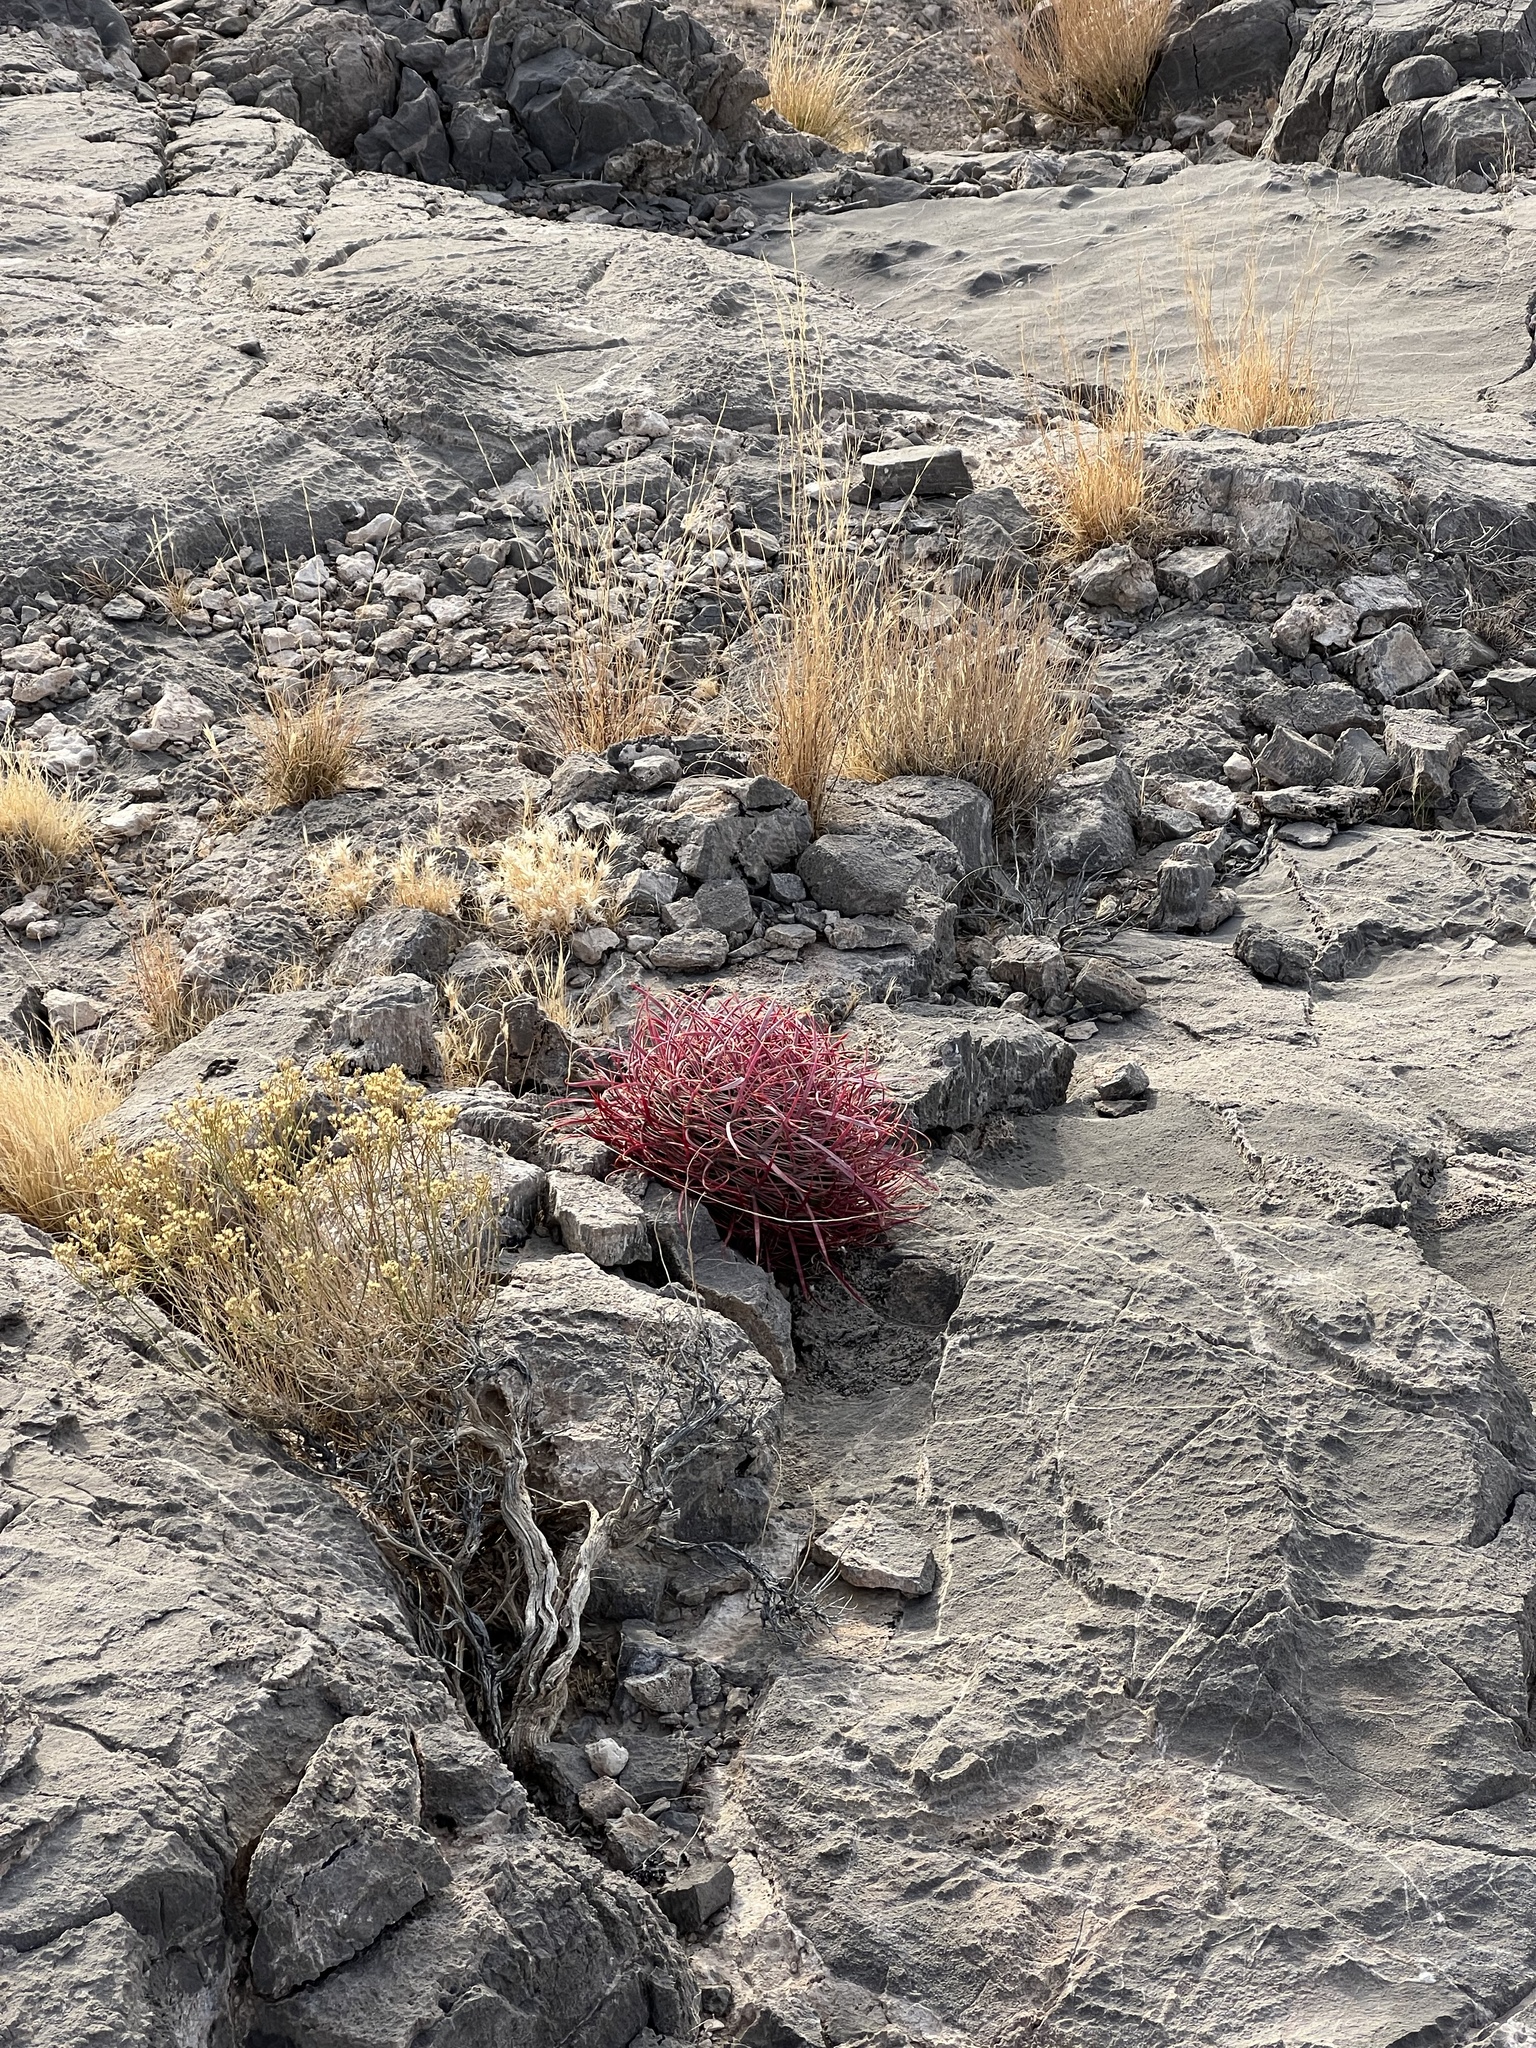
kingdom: Plantae
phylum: Tracheophyta
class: Magnoliopsida
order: Caryophyllales
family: Cactaceae
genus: Ferocactus
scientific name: Ferocactus cylindraceus
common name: California barrel cactus
